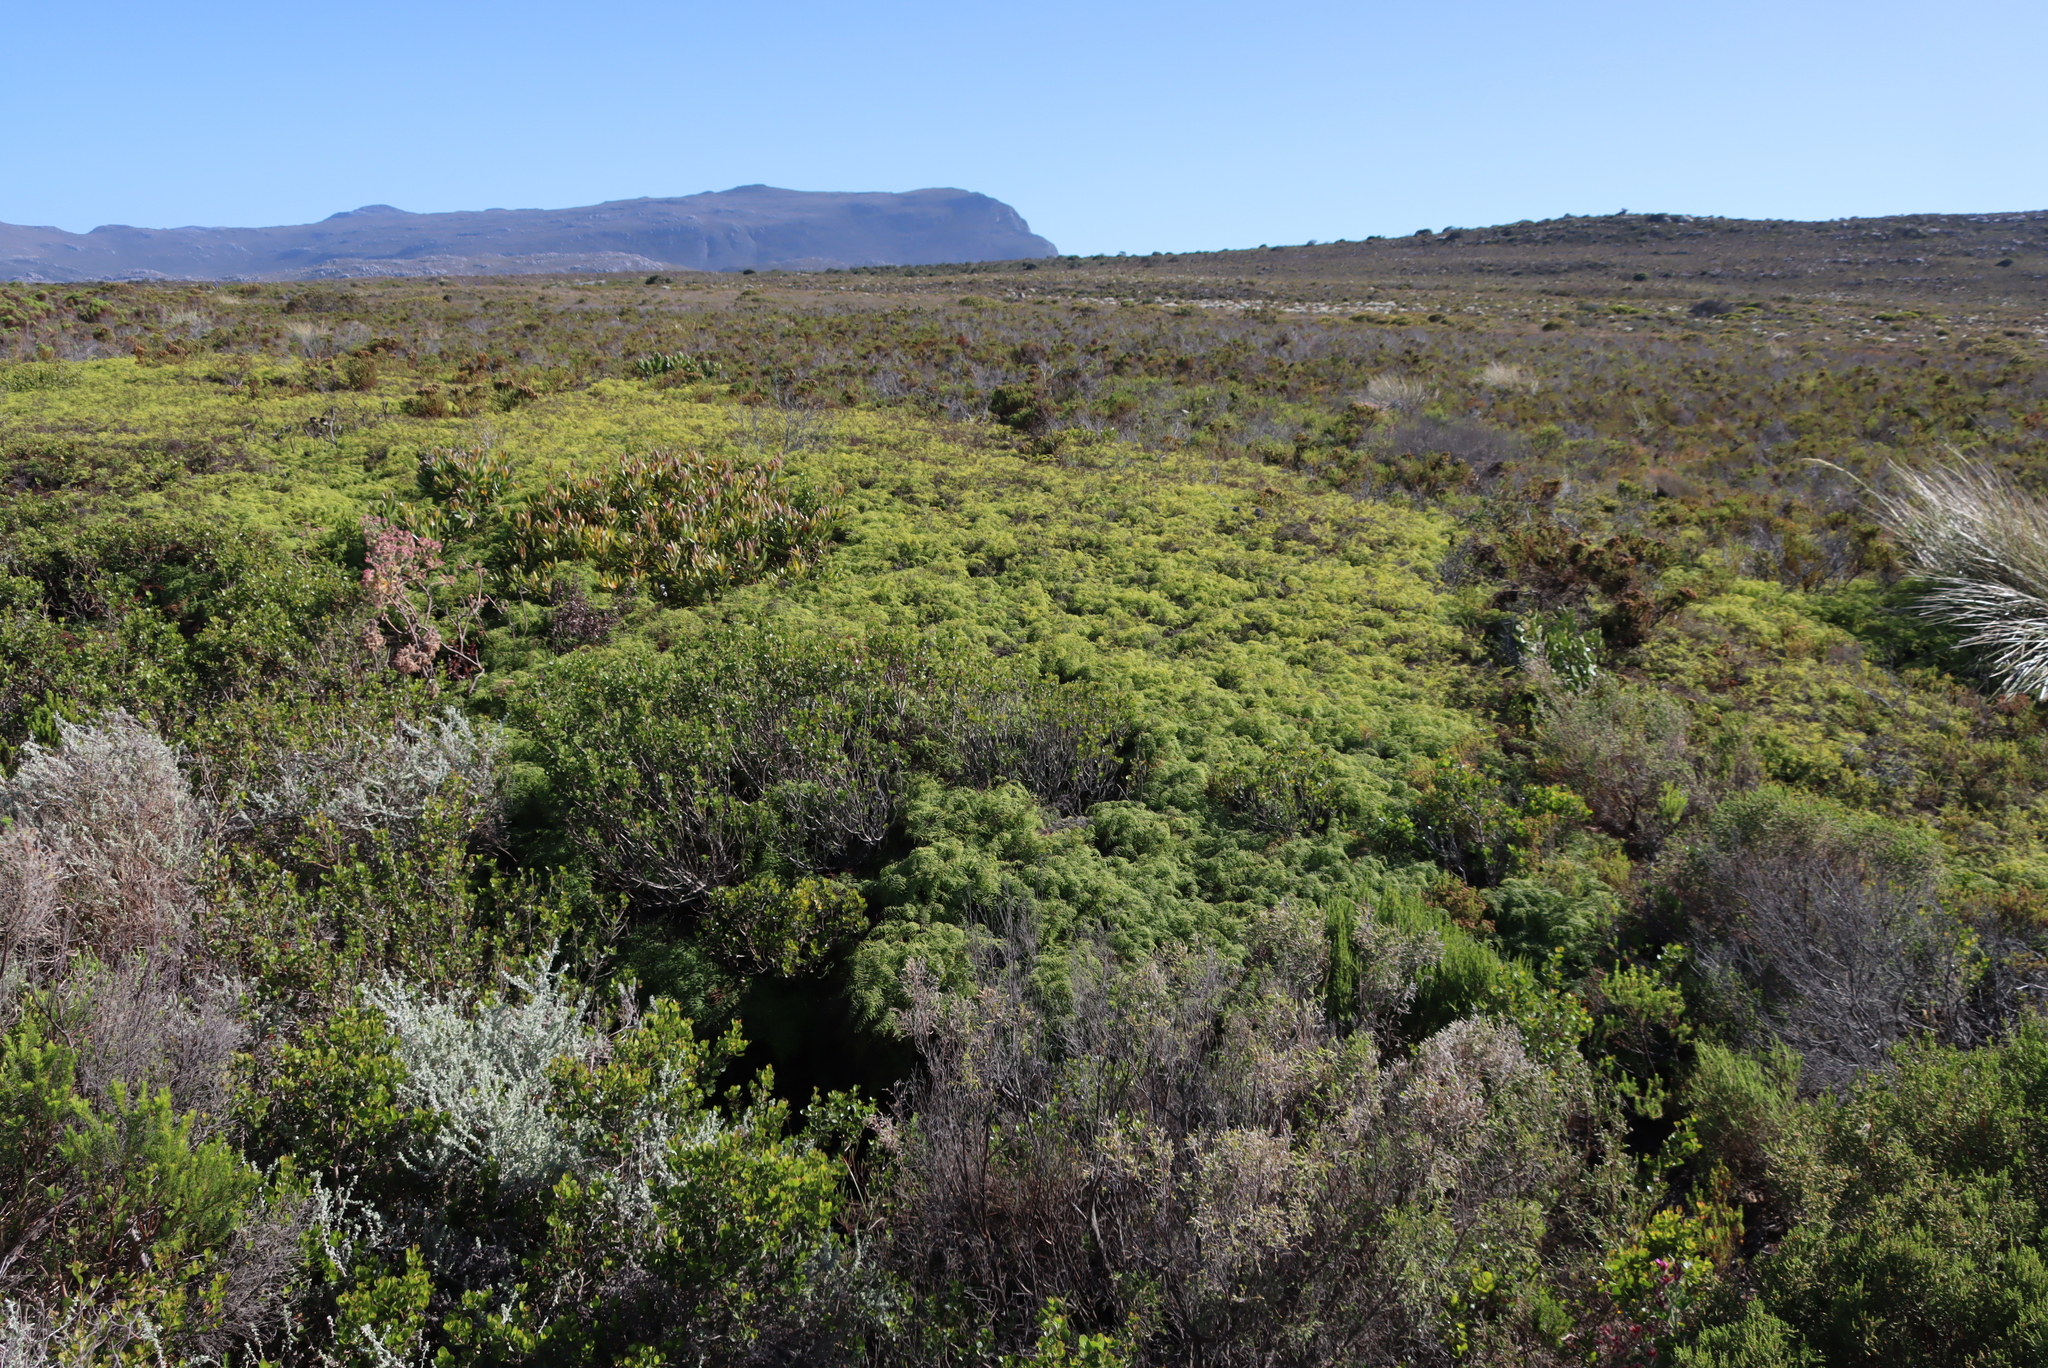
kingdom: Plantae
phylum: Tracheophyta
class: Polypodiopsida
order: Gleicheniales
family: Gleicheniaceae
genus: Gleichenia
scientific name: Gleichenia polypodioides
